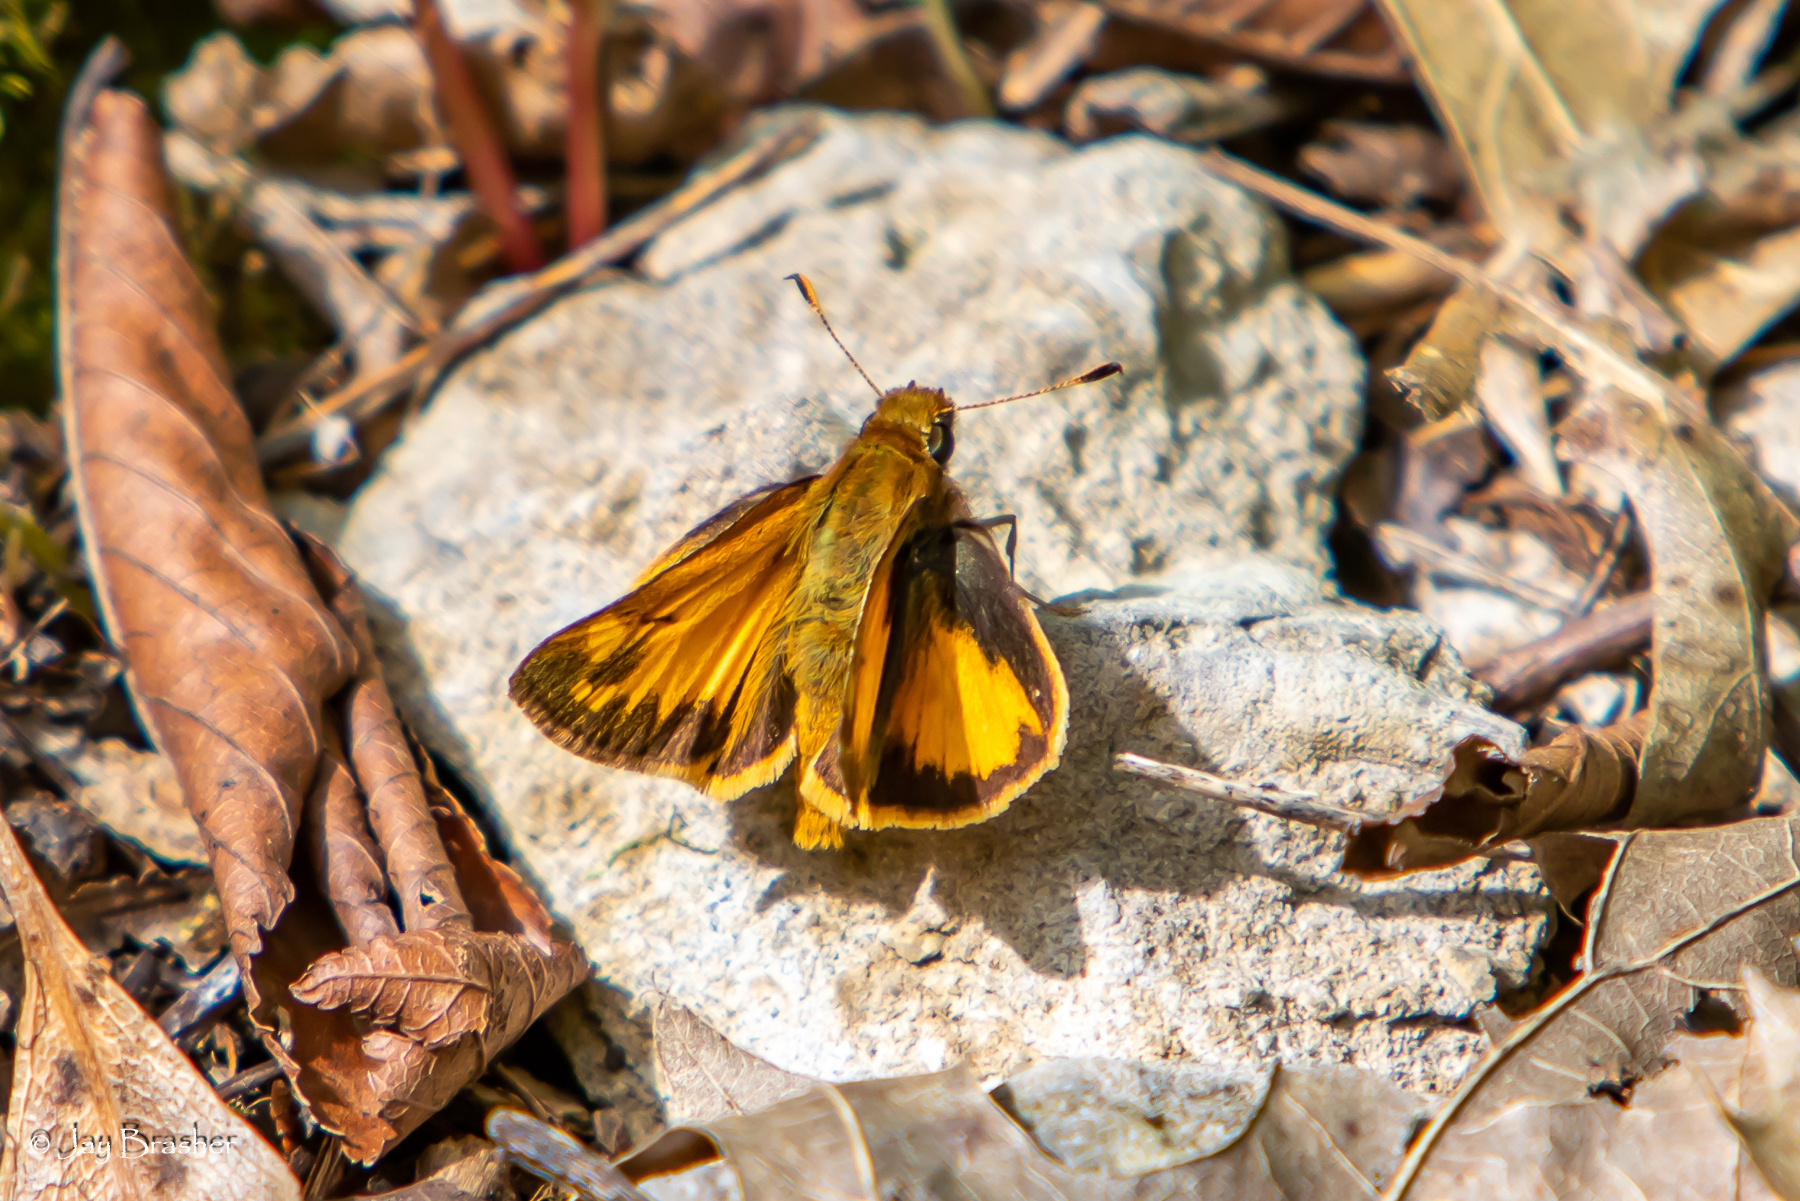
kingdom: Animalia
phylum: Arthropoda
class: Insecta
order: Lepidoptera
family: Hesperiidae
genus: Lon
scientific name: Lon zabulon
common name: Zabulon skipper
